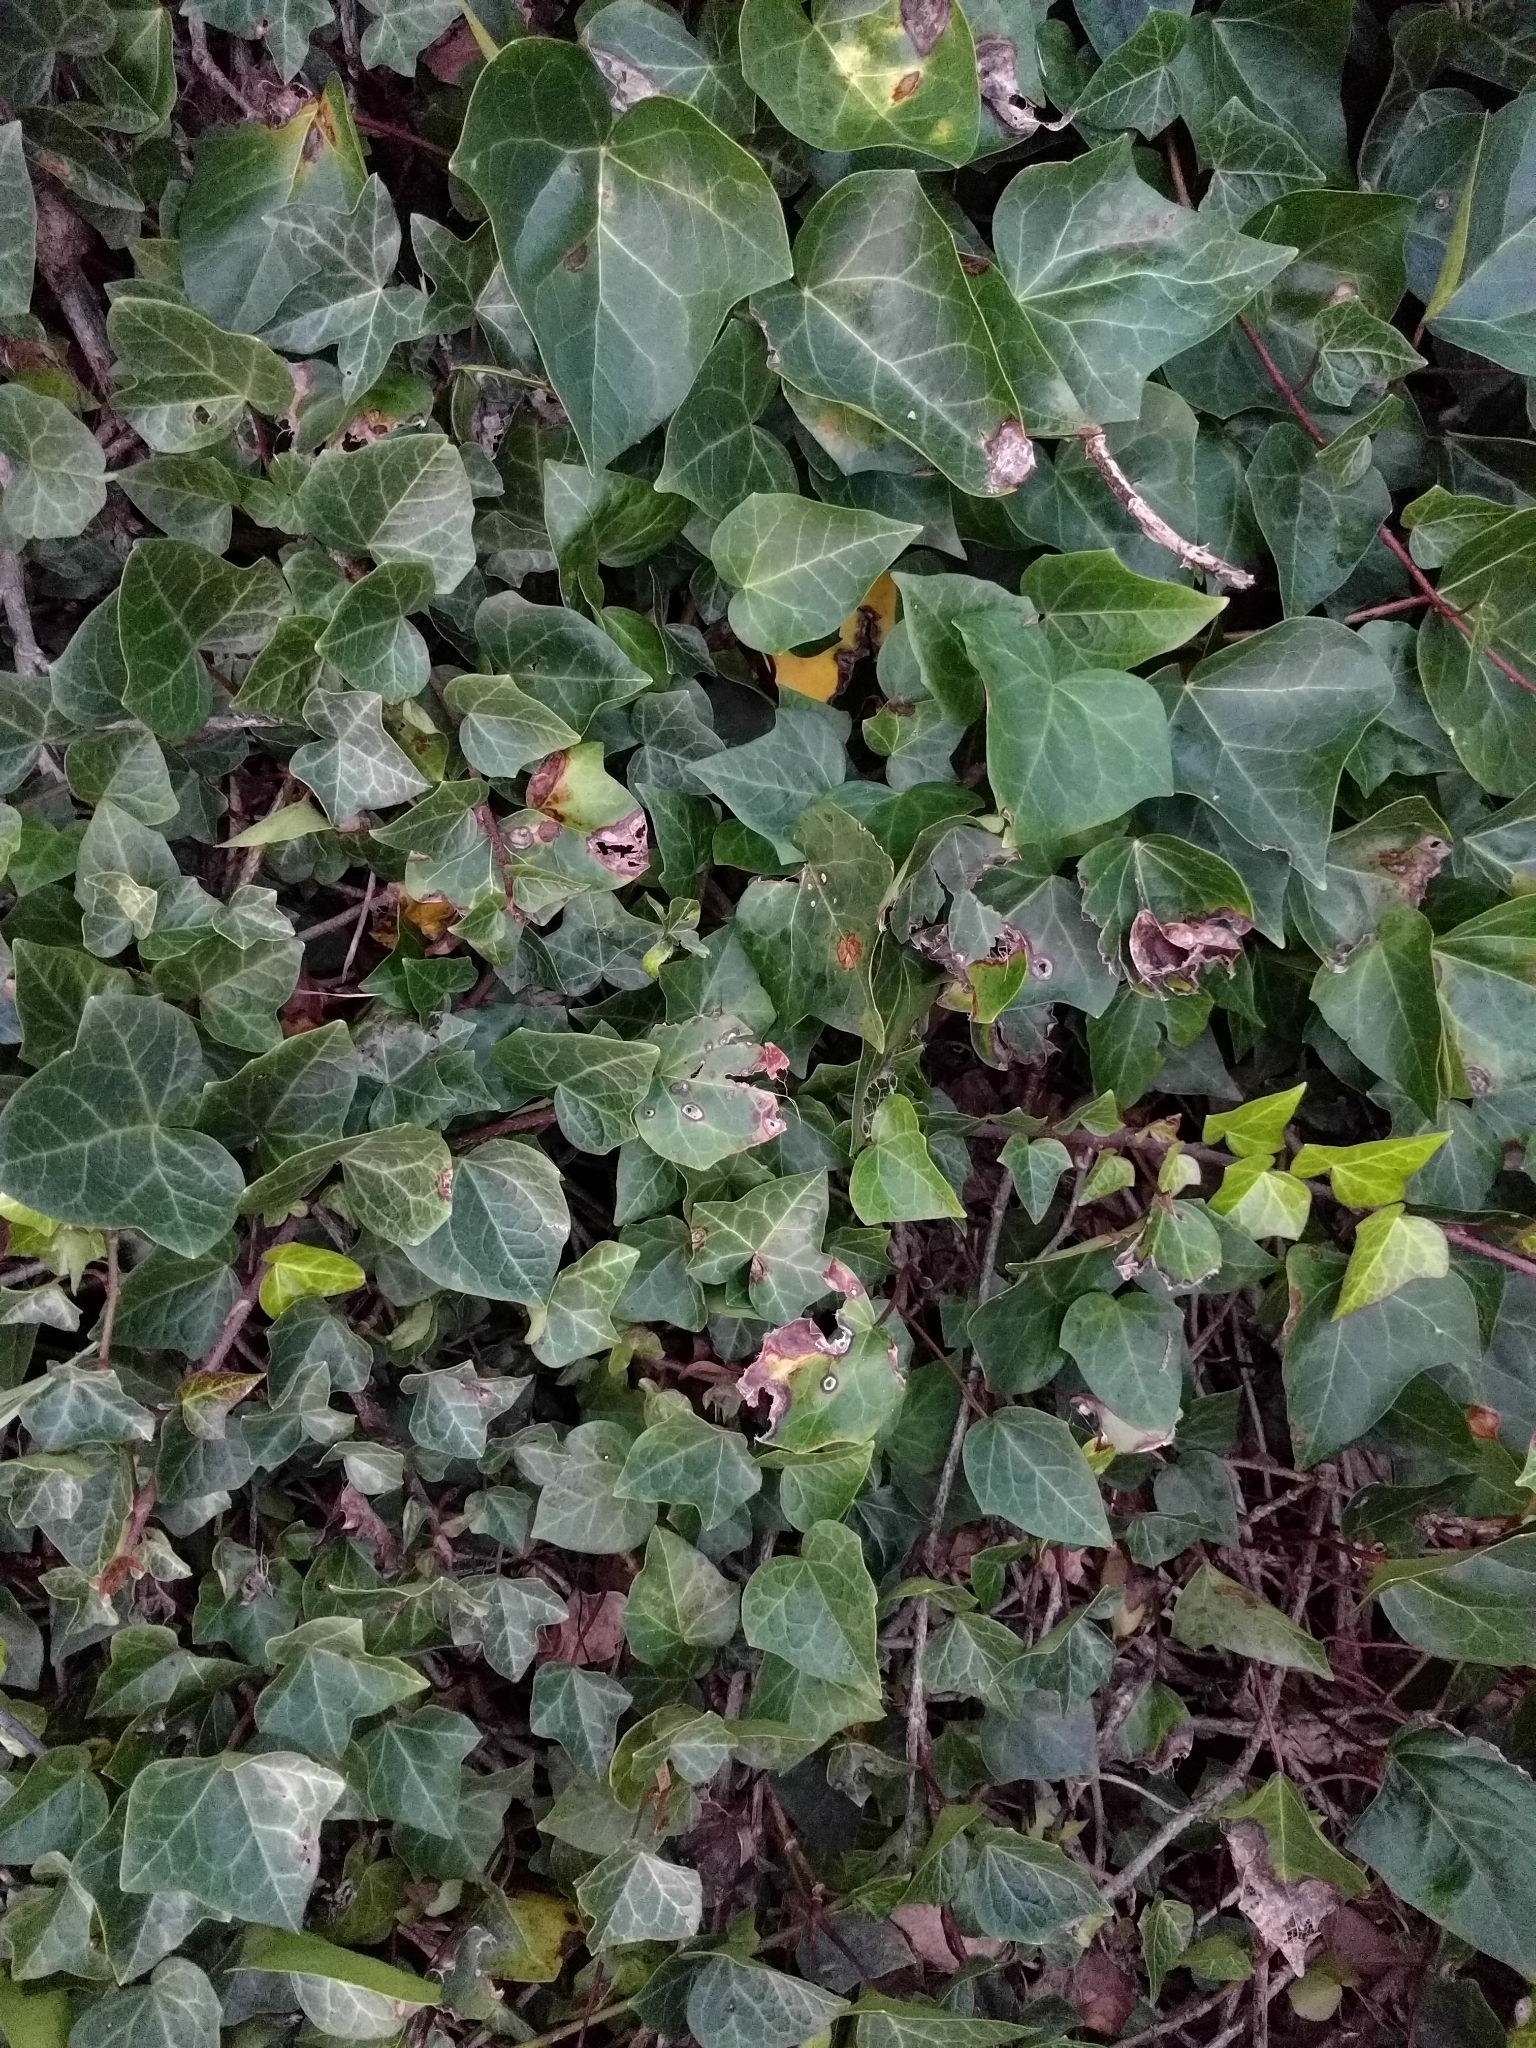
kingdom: Plantae
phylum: Tracheophyta
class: Magnoliopsida
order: Apiales
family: Araliaceae
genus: Hedera
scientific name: Hedera helix
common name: Ivy
